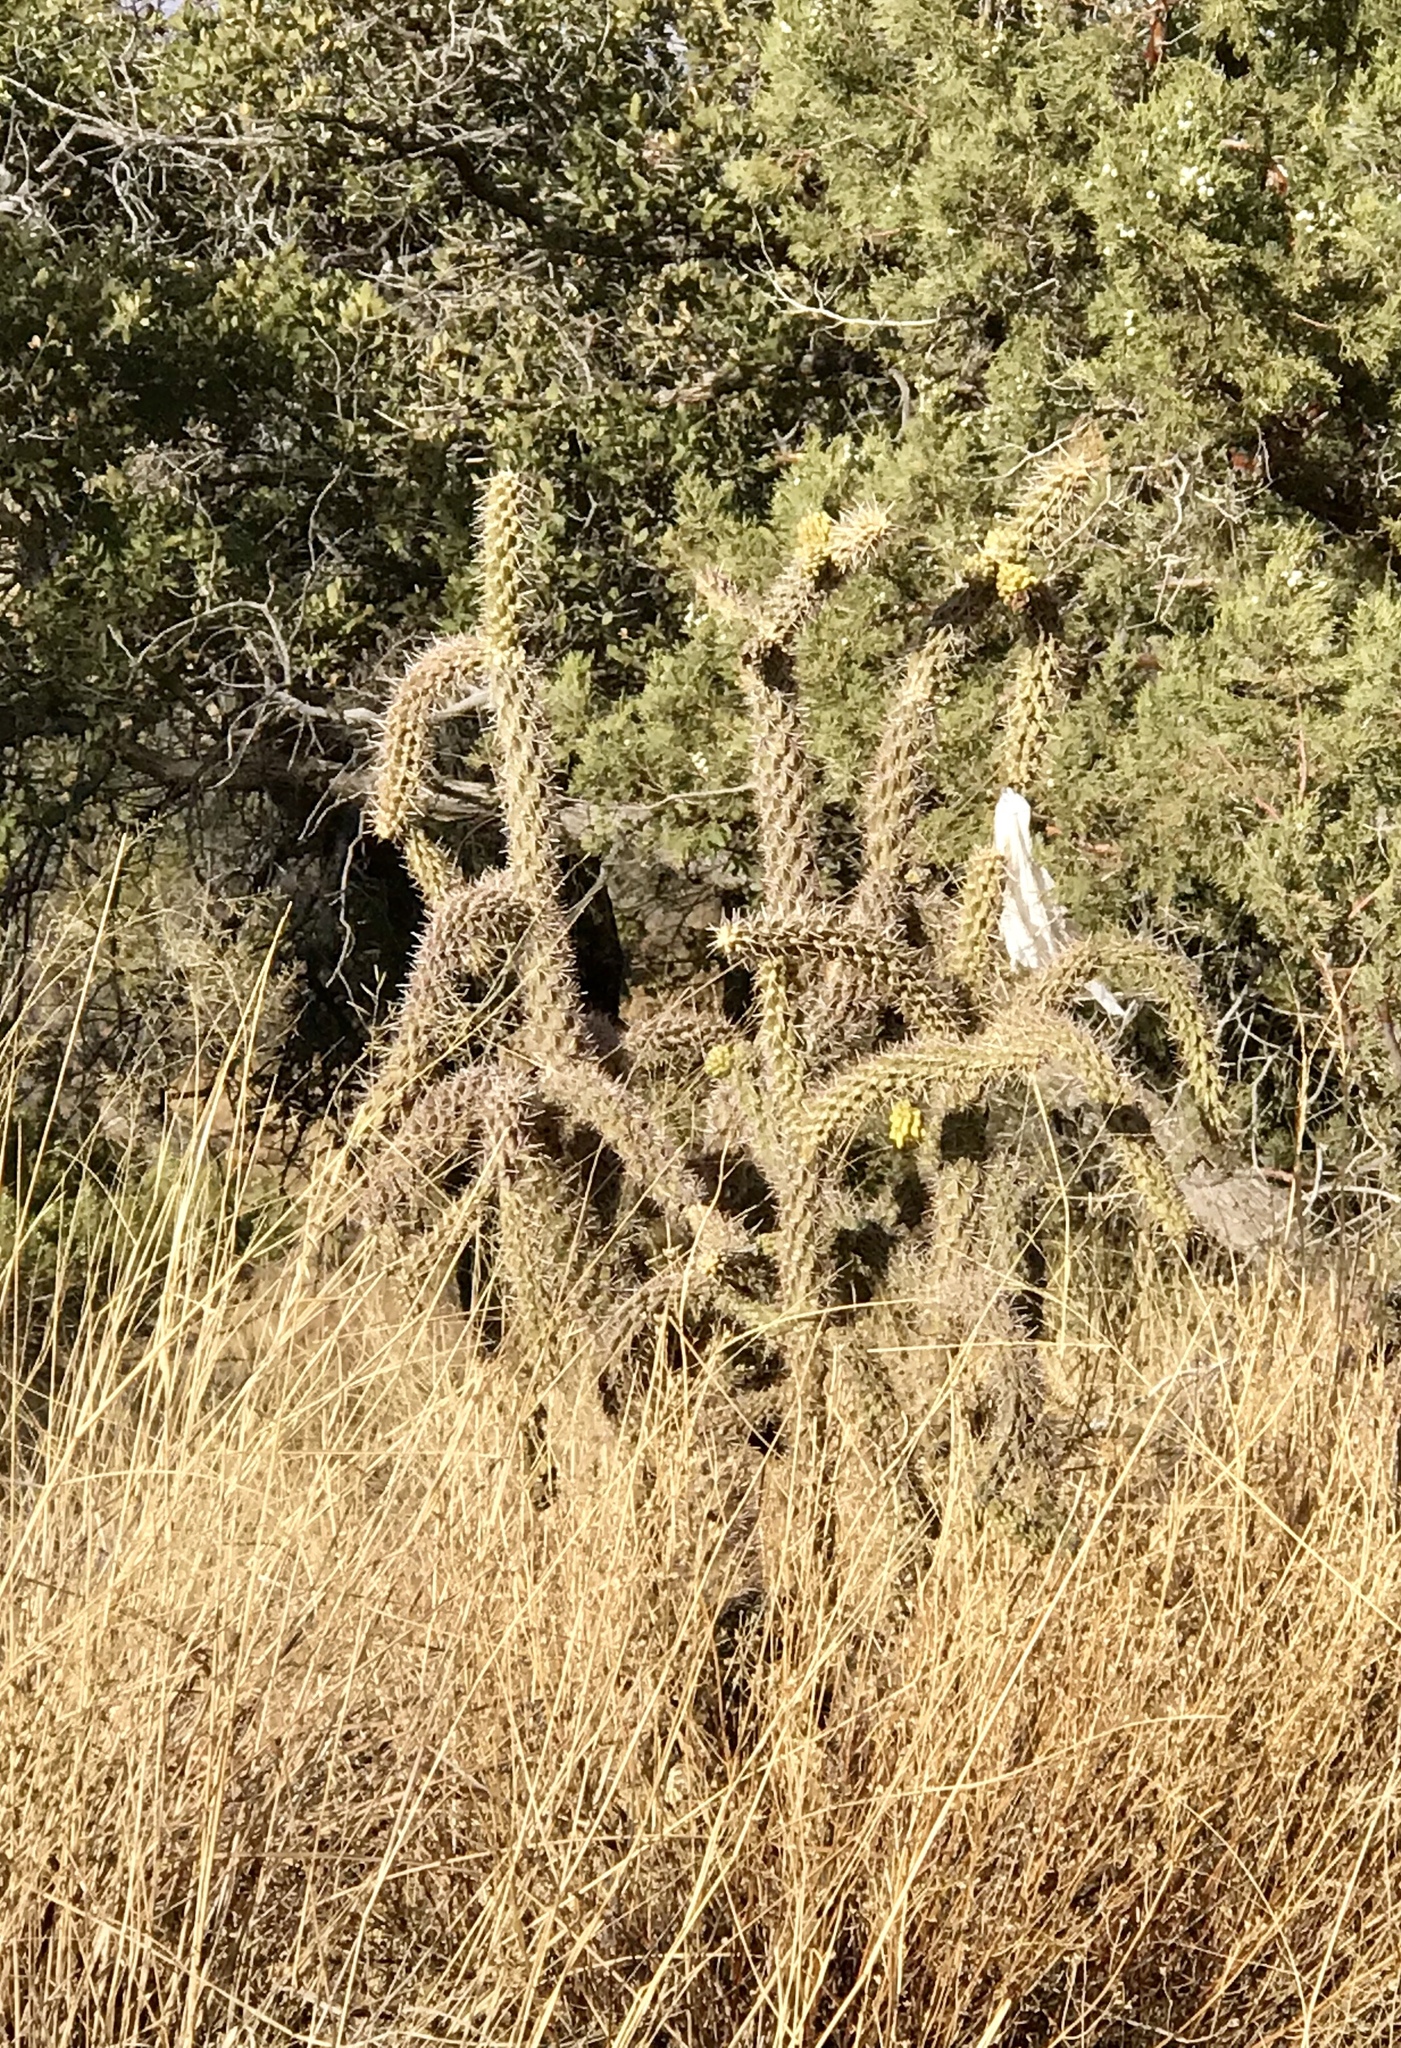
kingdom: Plantae
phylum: Tracheophyta
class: Magnoliopsida
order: Caryophyllales
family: Cactaceae
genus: Cylindropuntia
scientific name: Cylindropuntia imbricata
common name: Candelabrum cactus
